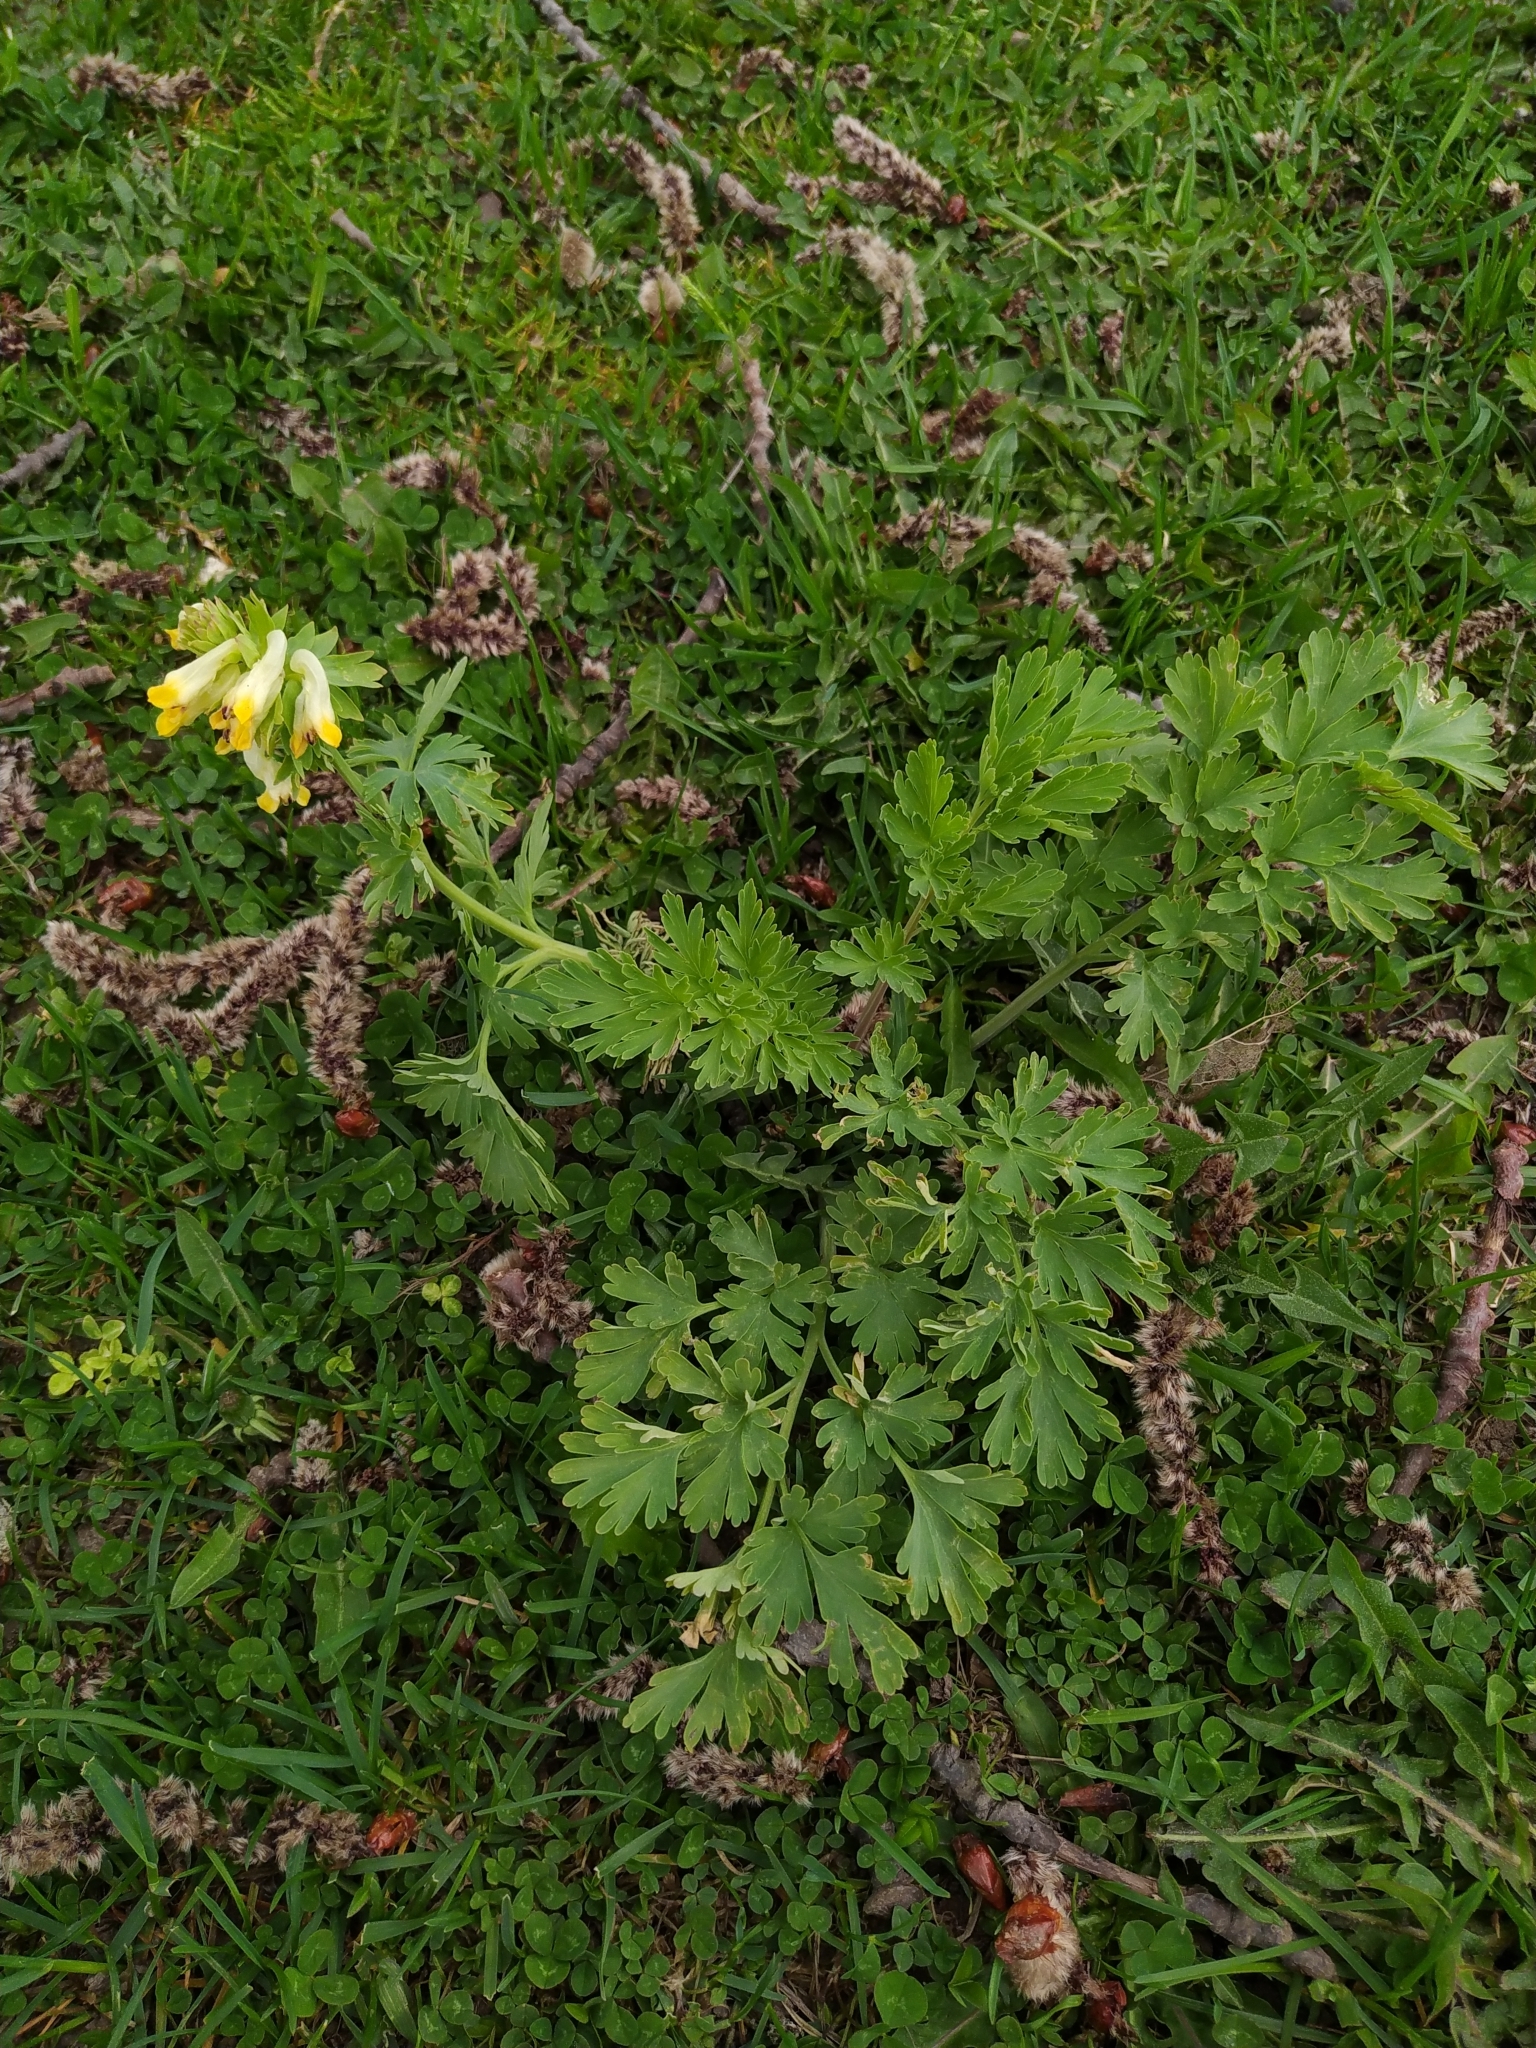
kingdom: Plantae
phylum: Tracheophyta
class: Magnoliopsida
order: Ranunculales
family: Papaveraceae
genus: Corydalis
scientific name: Corydalis nobilis
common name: Siberian corydalis
